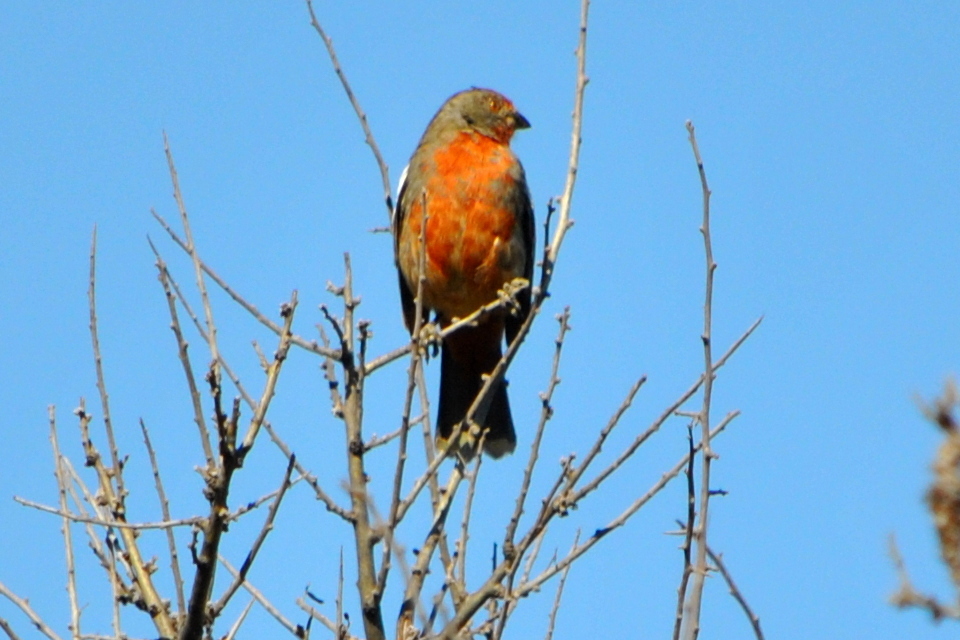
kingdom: Animalia
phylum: Chordata
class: Aves
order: Passeriformes
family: Cotingidae
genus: Phytotoma
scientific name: Phytotoma rutila
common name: White-tipped plantcutter
